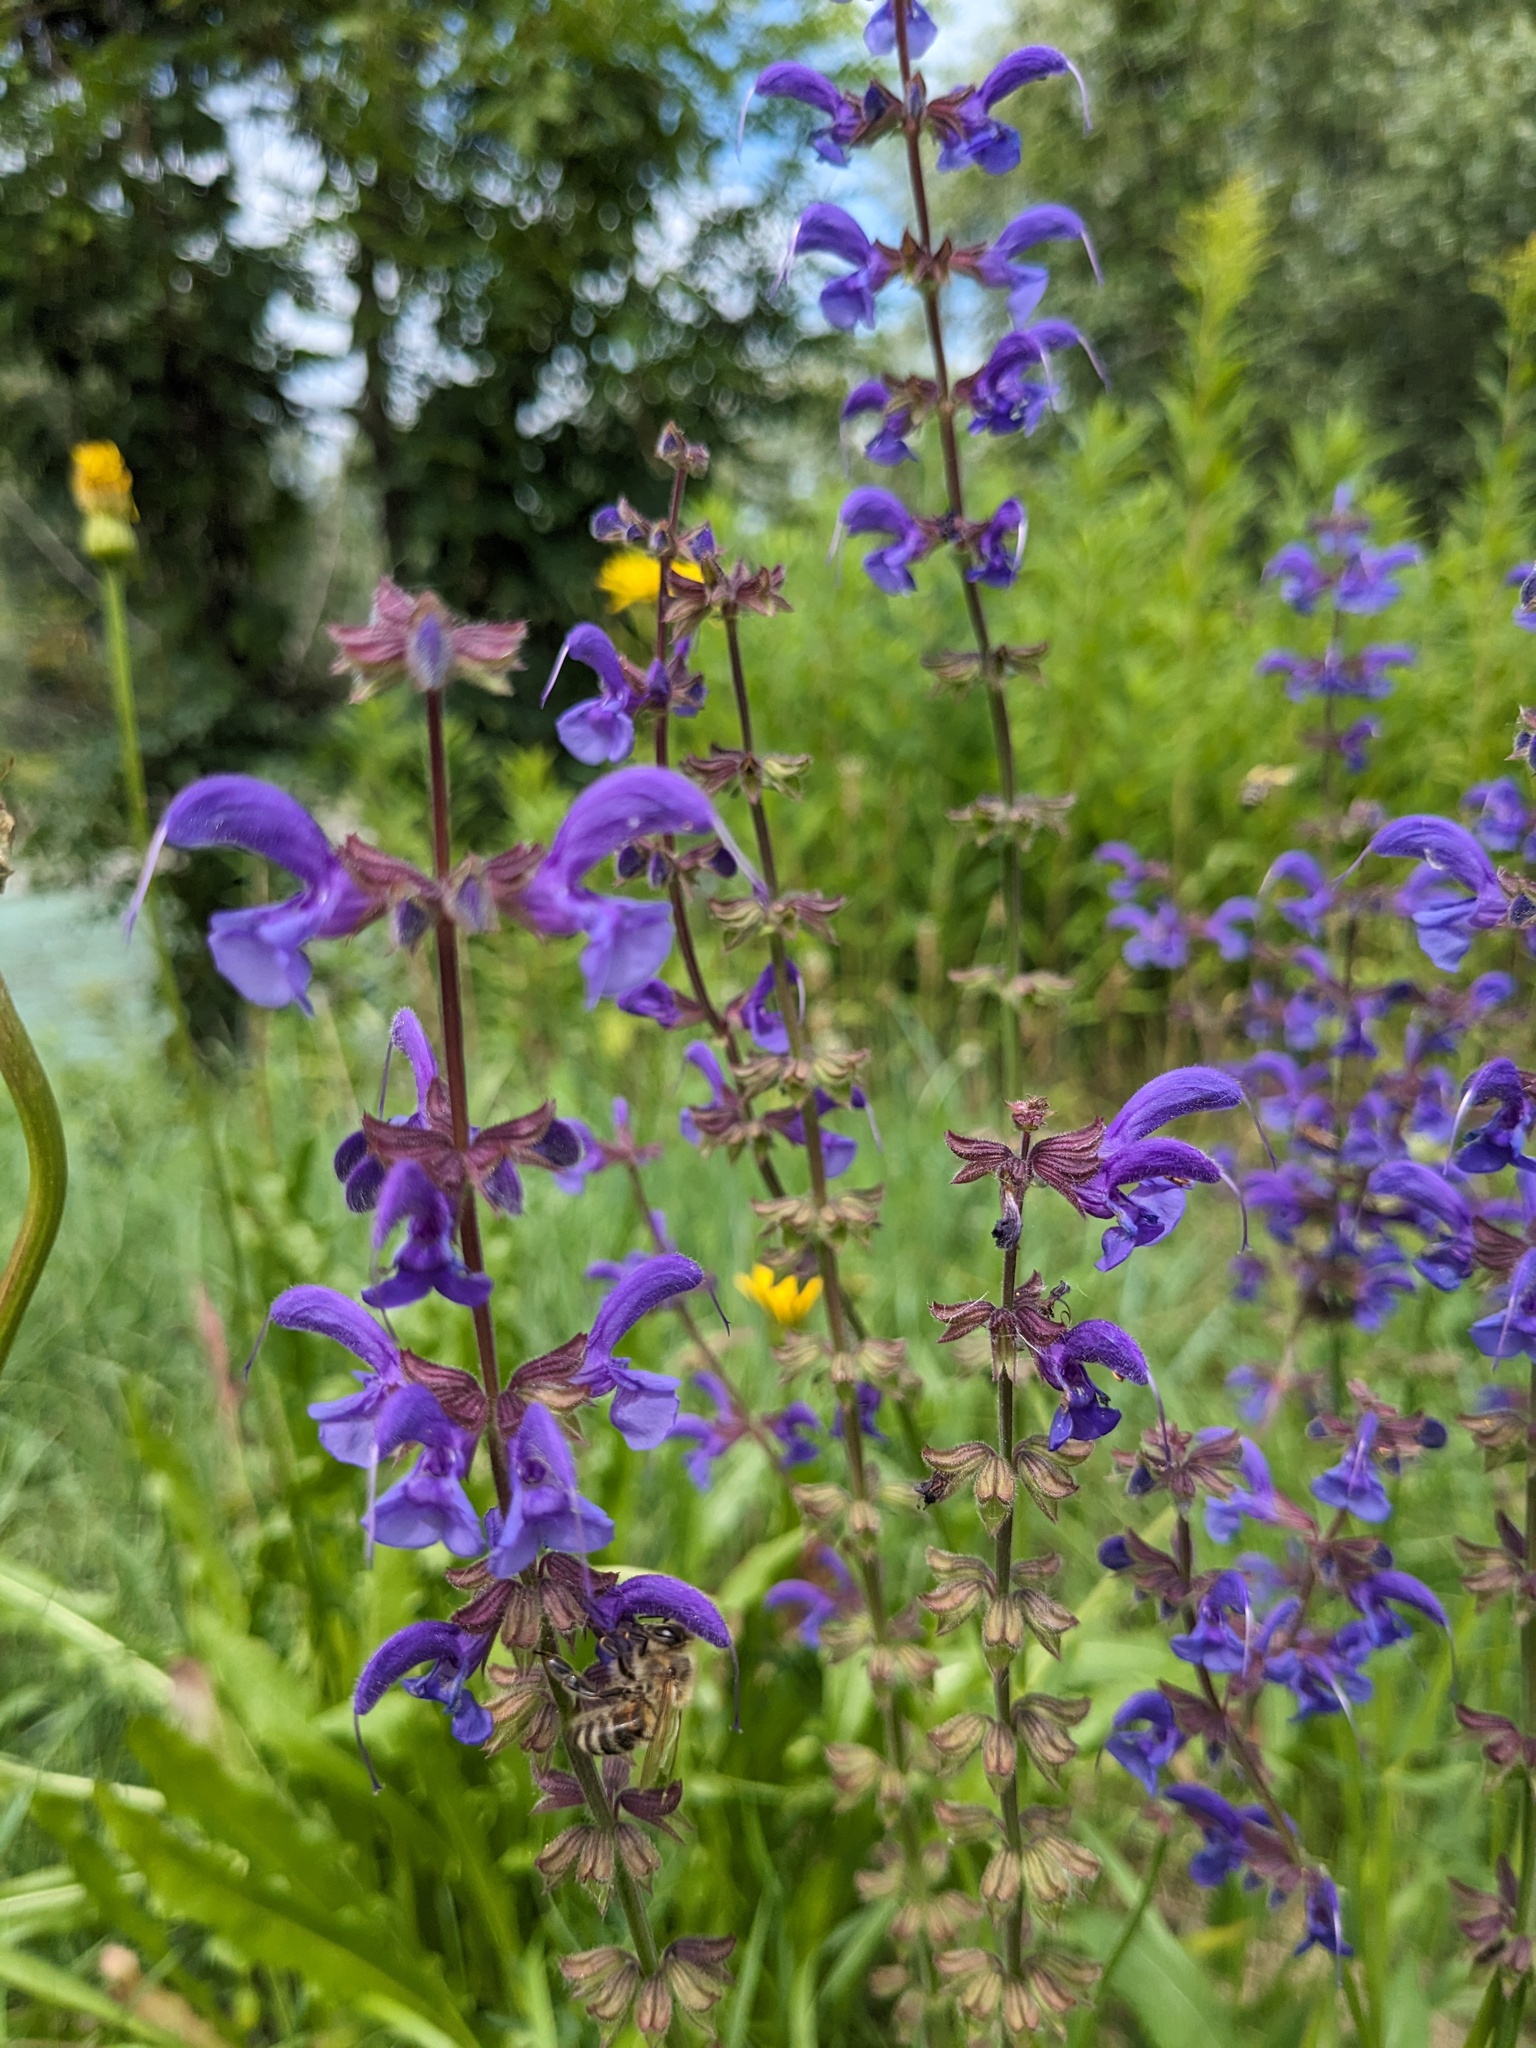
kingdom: Plantae
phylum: Tracheophyta
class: Magnoliopsida
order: Lamiales
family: Lamiaceae
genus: Salvia
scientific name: Salvia pratensis
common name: Meadow sage
